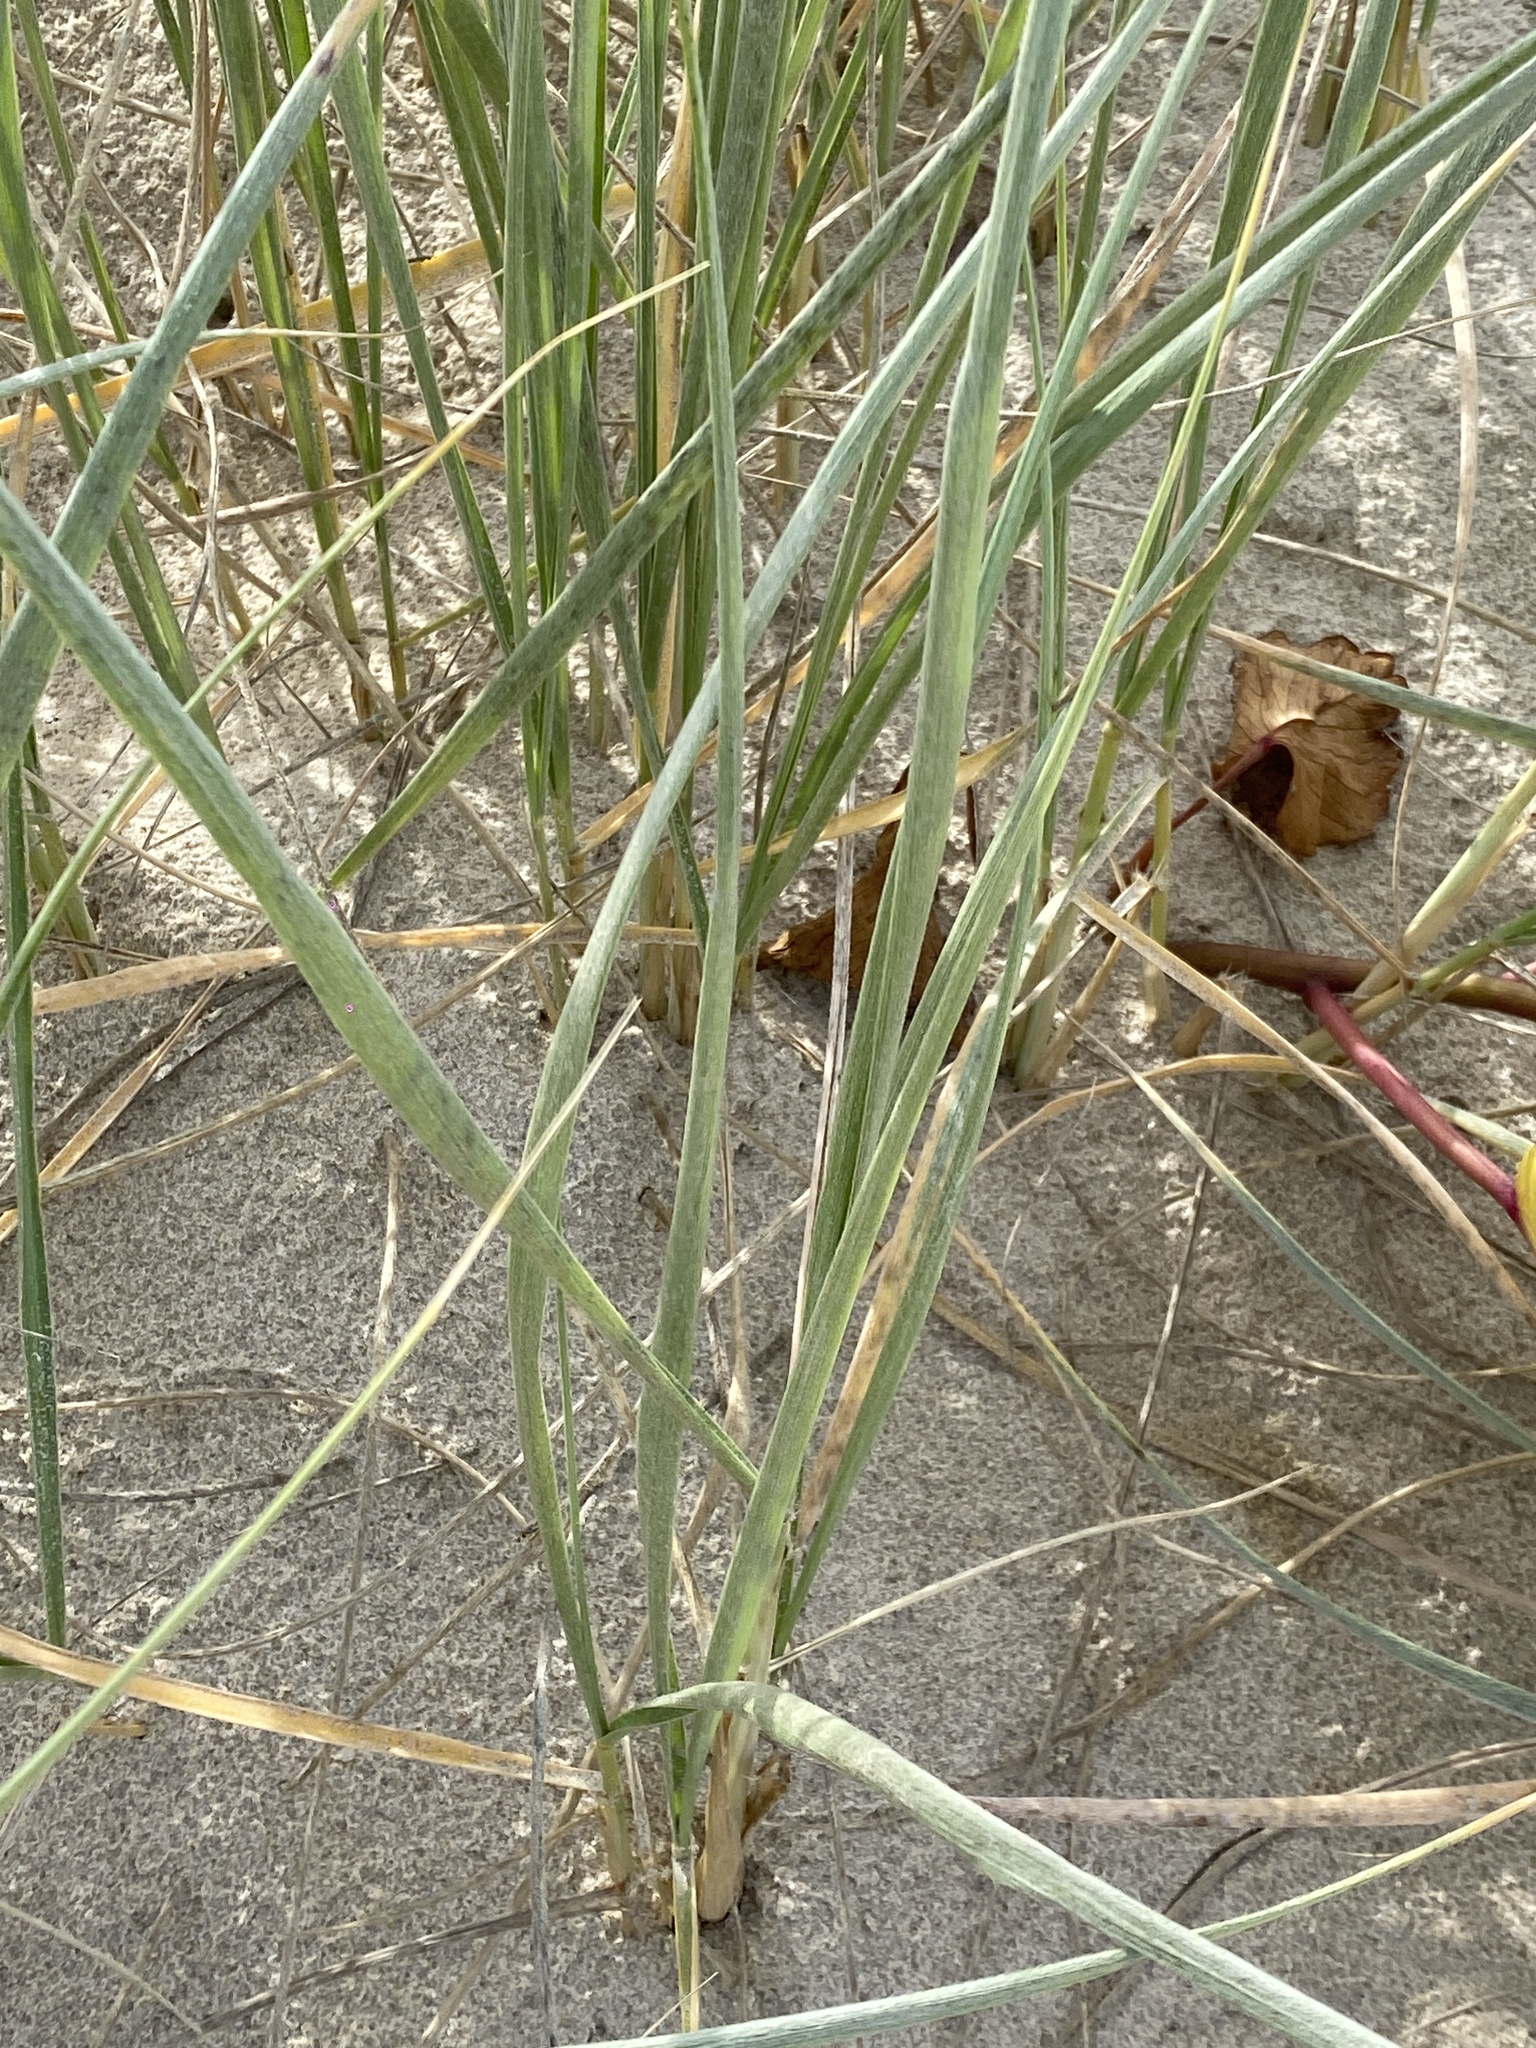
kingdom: Plantae
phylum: Tracheophyta
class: Liliopsida
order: Poales
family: Poaceae
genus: Spinifex
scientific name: Spinifex sericeus
